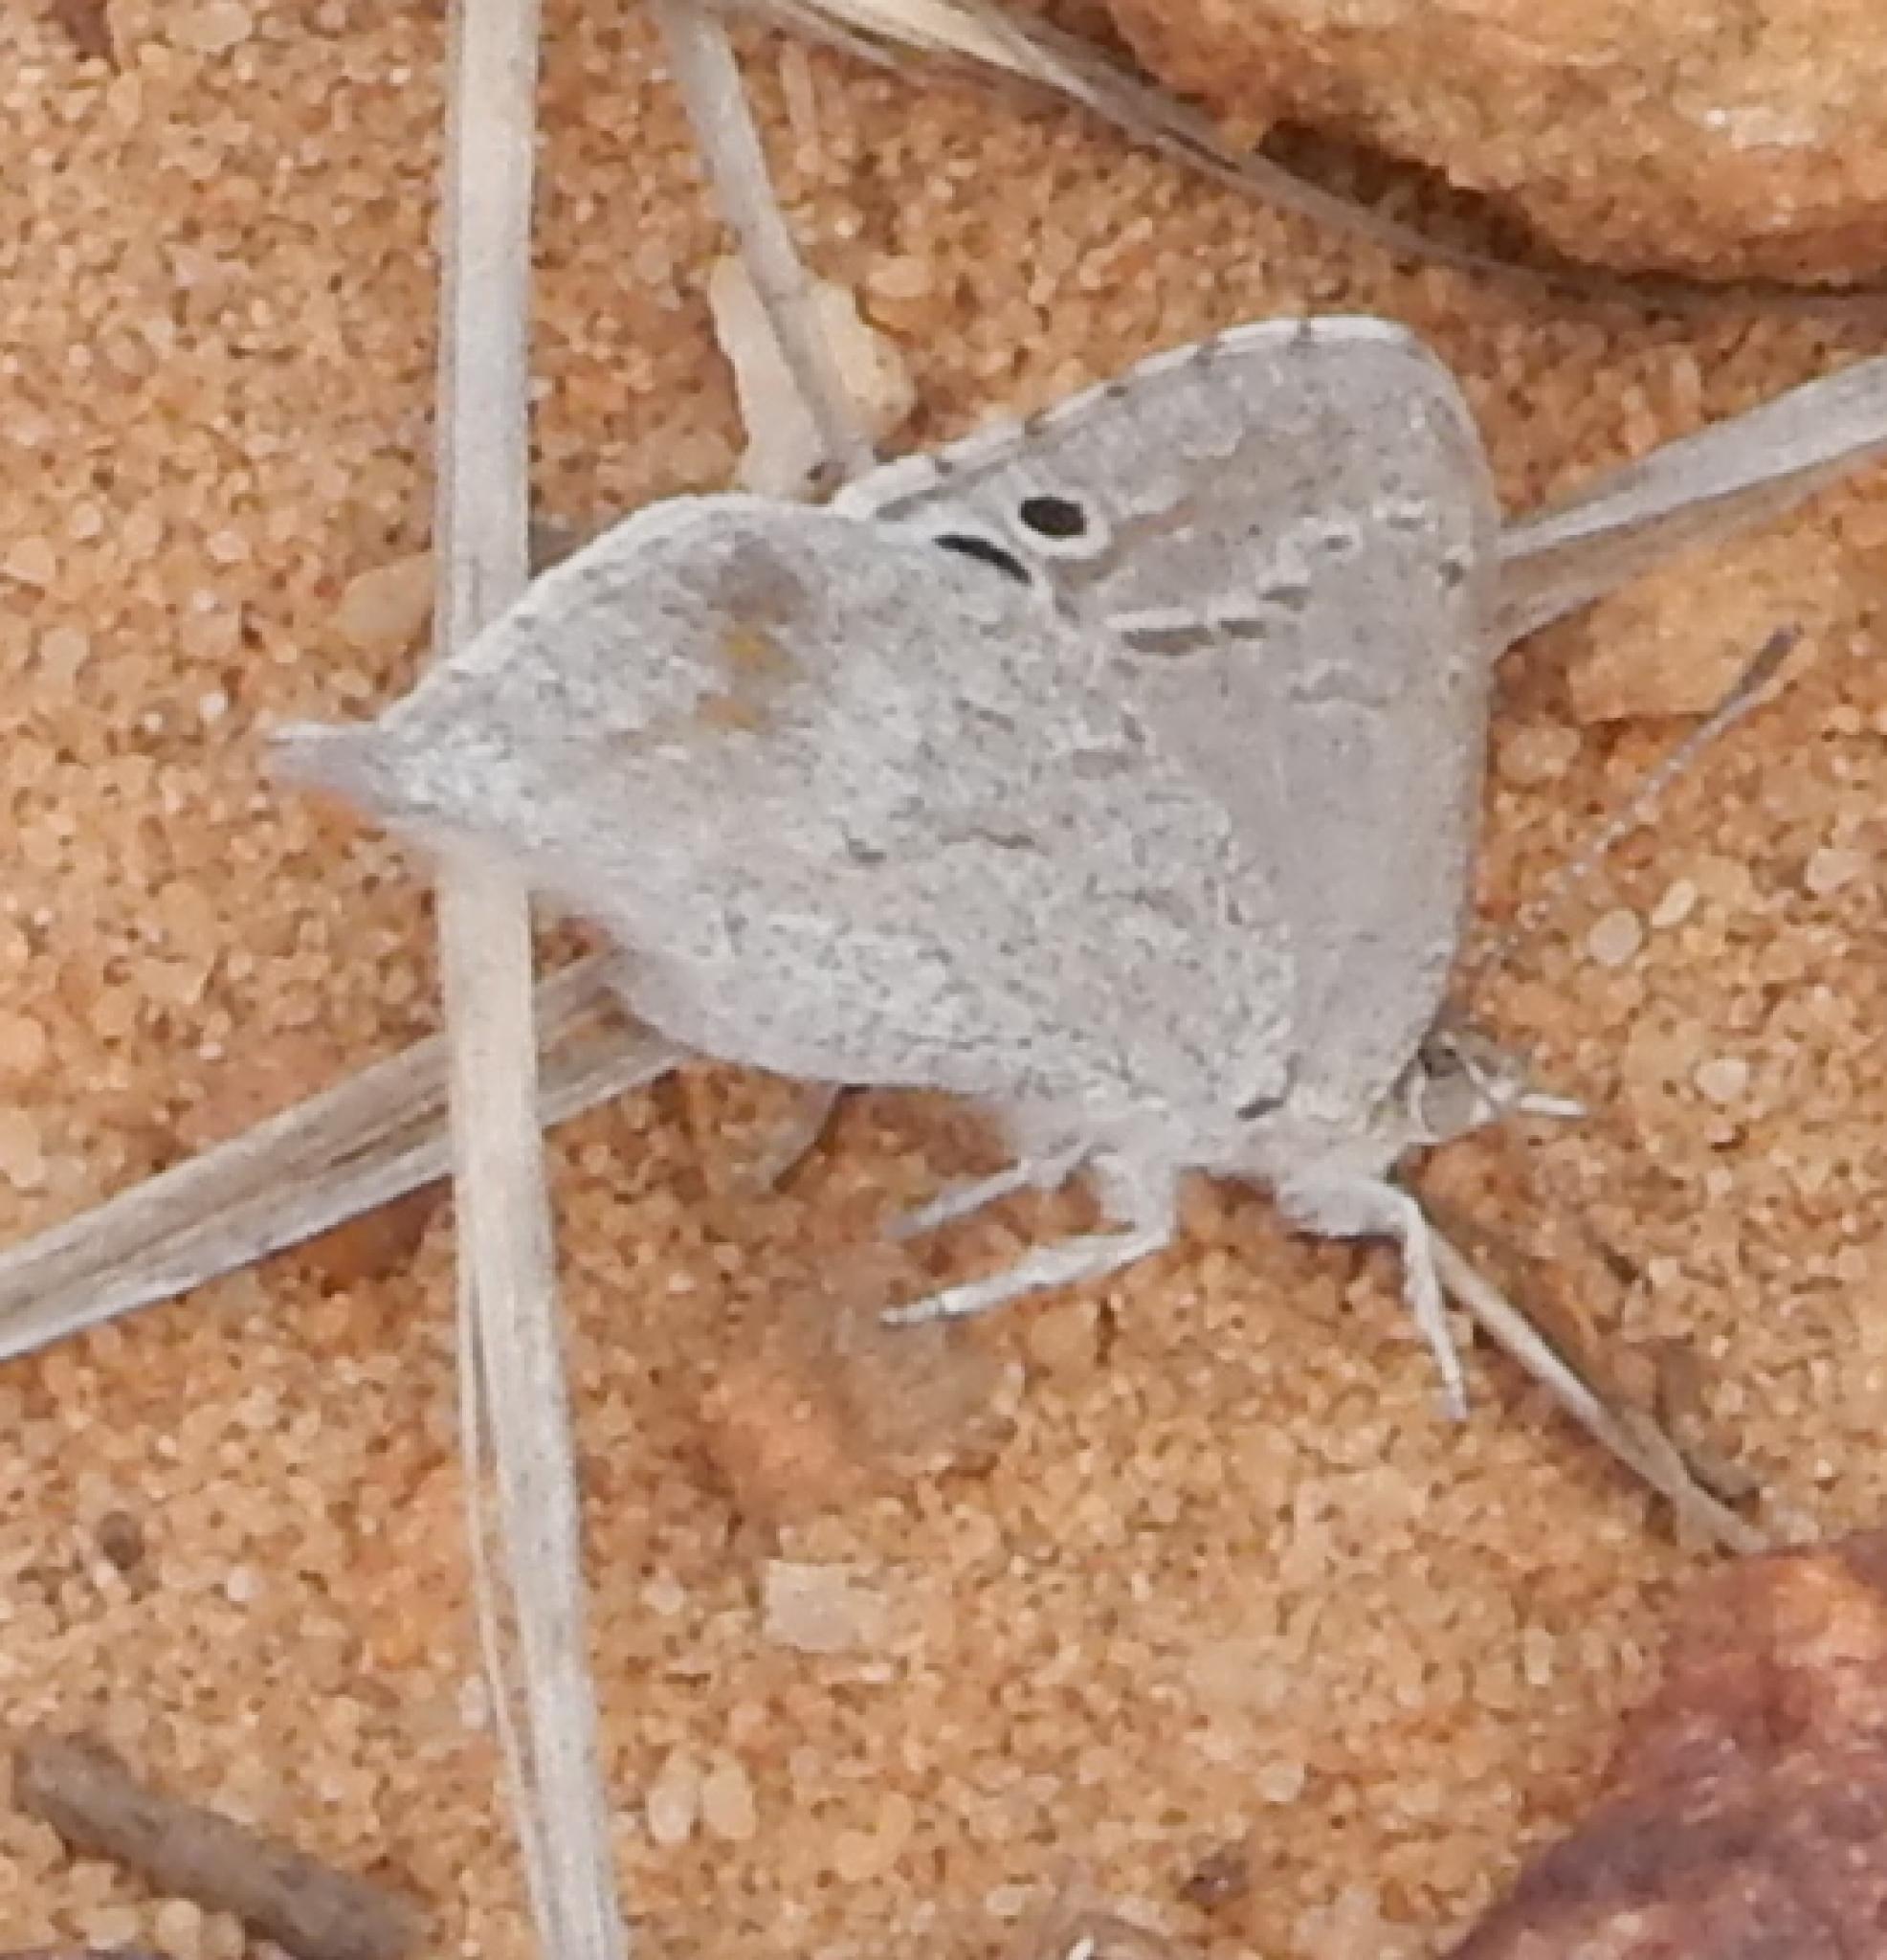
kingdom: Animalia
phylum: Arthropoda
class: Insecta
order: Lepidoptera
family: Lycaenidae
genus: Leptomyrina
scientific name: Leptomyrina henningi
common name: Henning's black-eye
